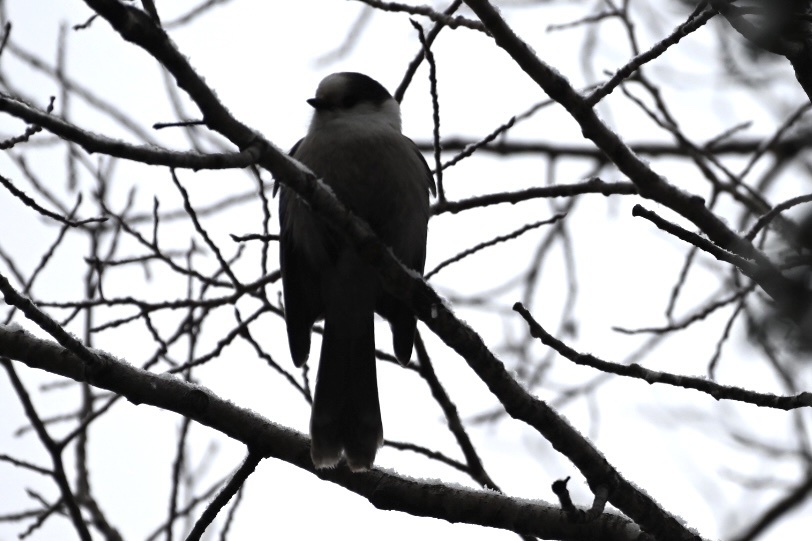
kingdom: Animalia
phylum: Chordata
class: Aves
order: Passeriformes
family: Corvidae
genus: Perisoreus
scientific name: Perisoreus canadensis
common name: Gray jay
